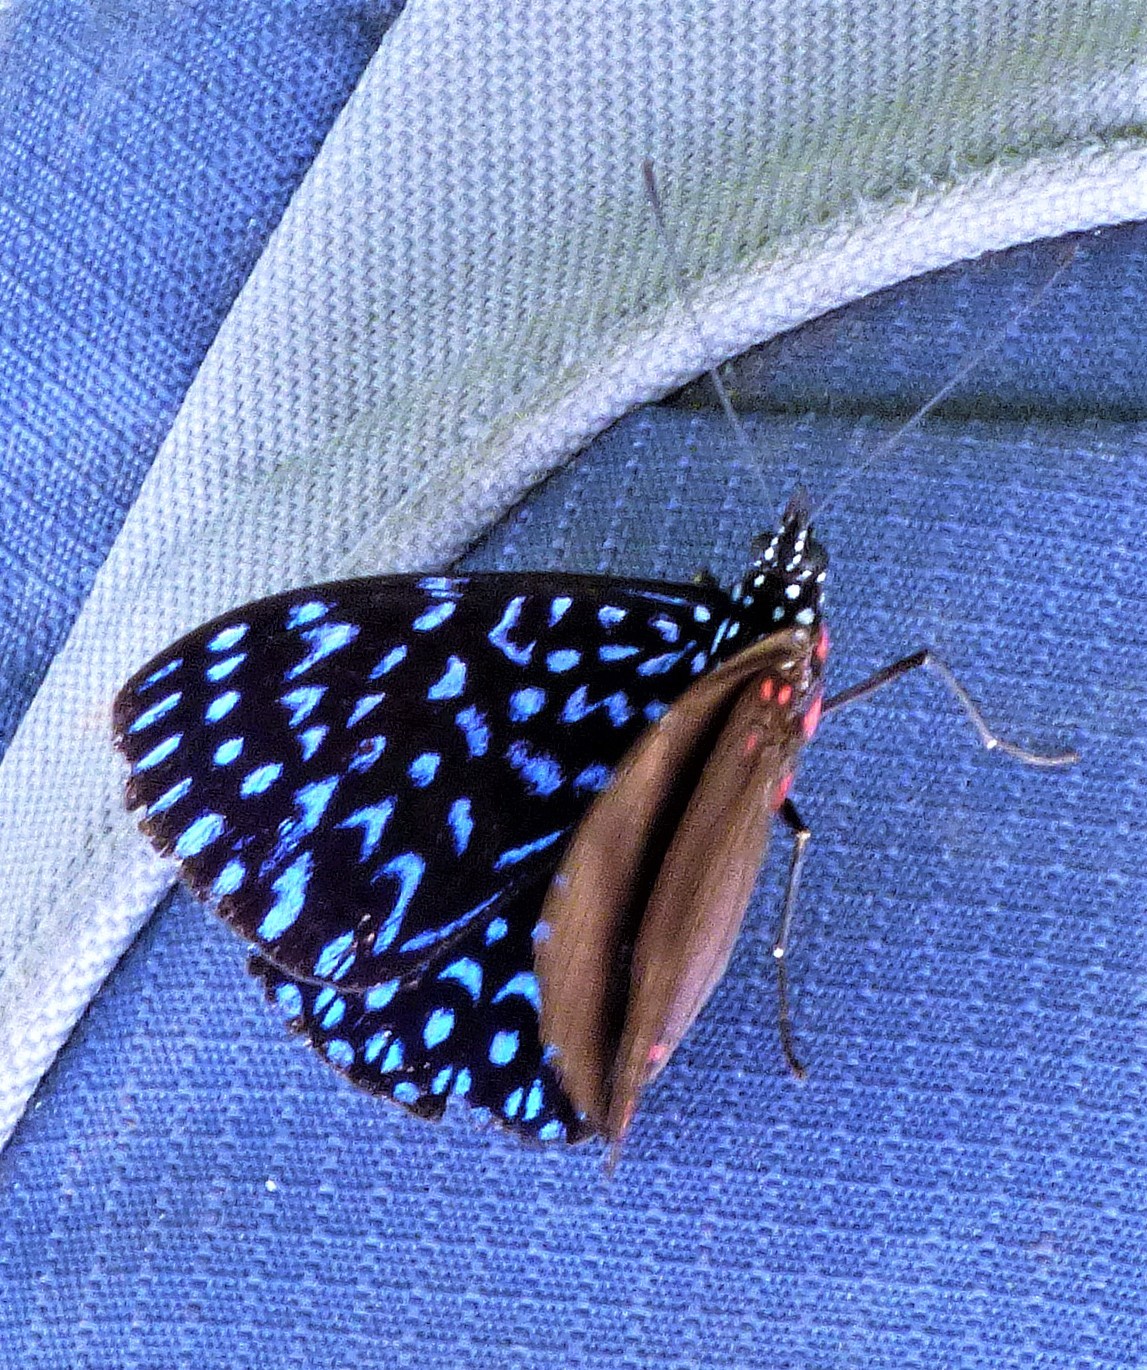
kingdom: Animalia
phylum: Arthropoda
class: Insecta
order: Lepidoptera
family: Nymphalidae
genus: Hamadryas
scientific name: Hamadryas arete
